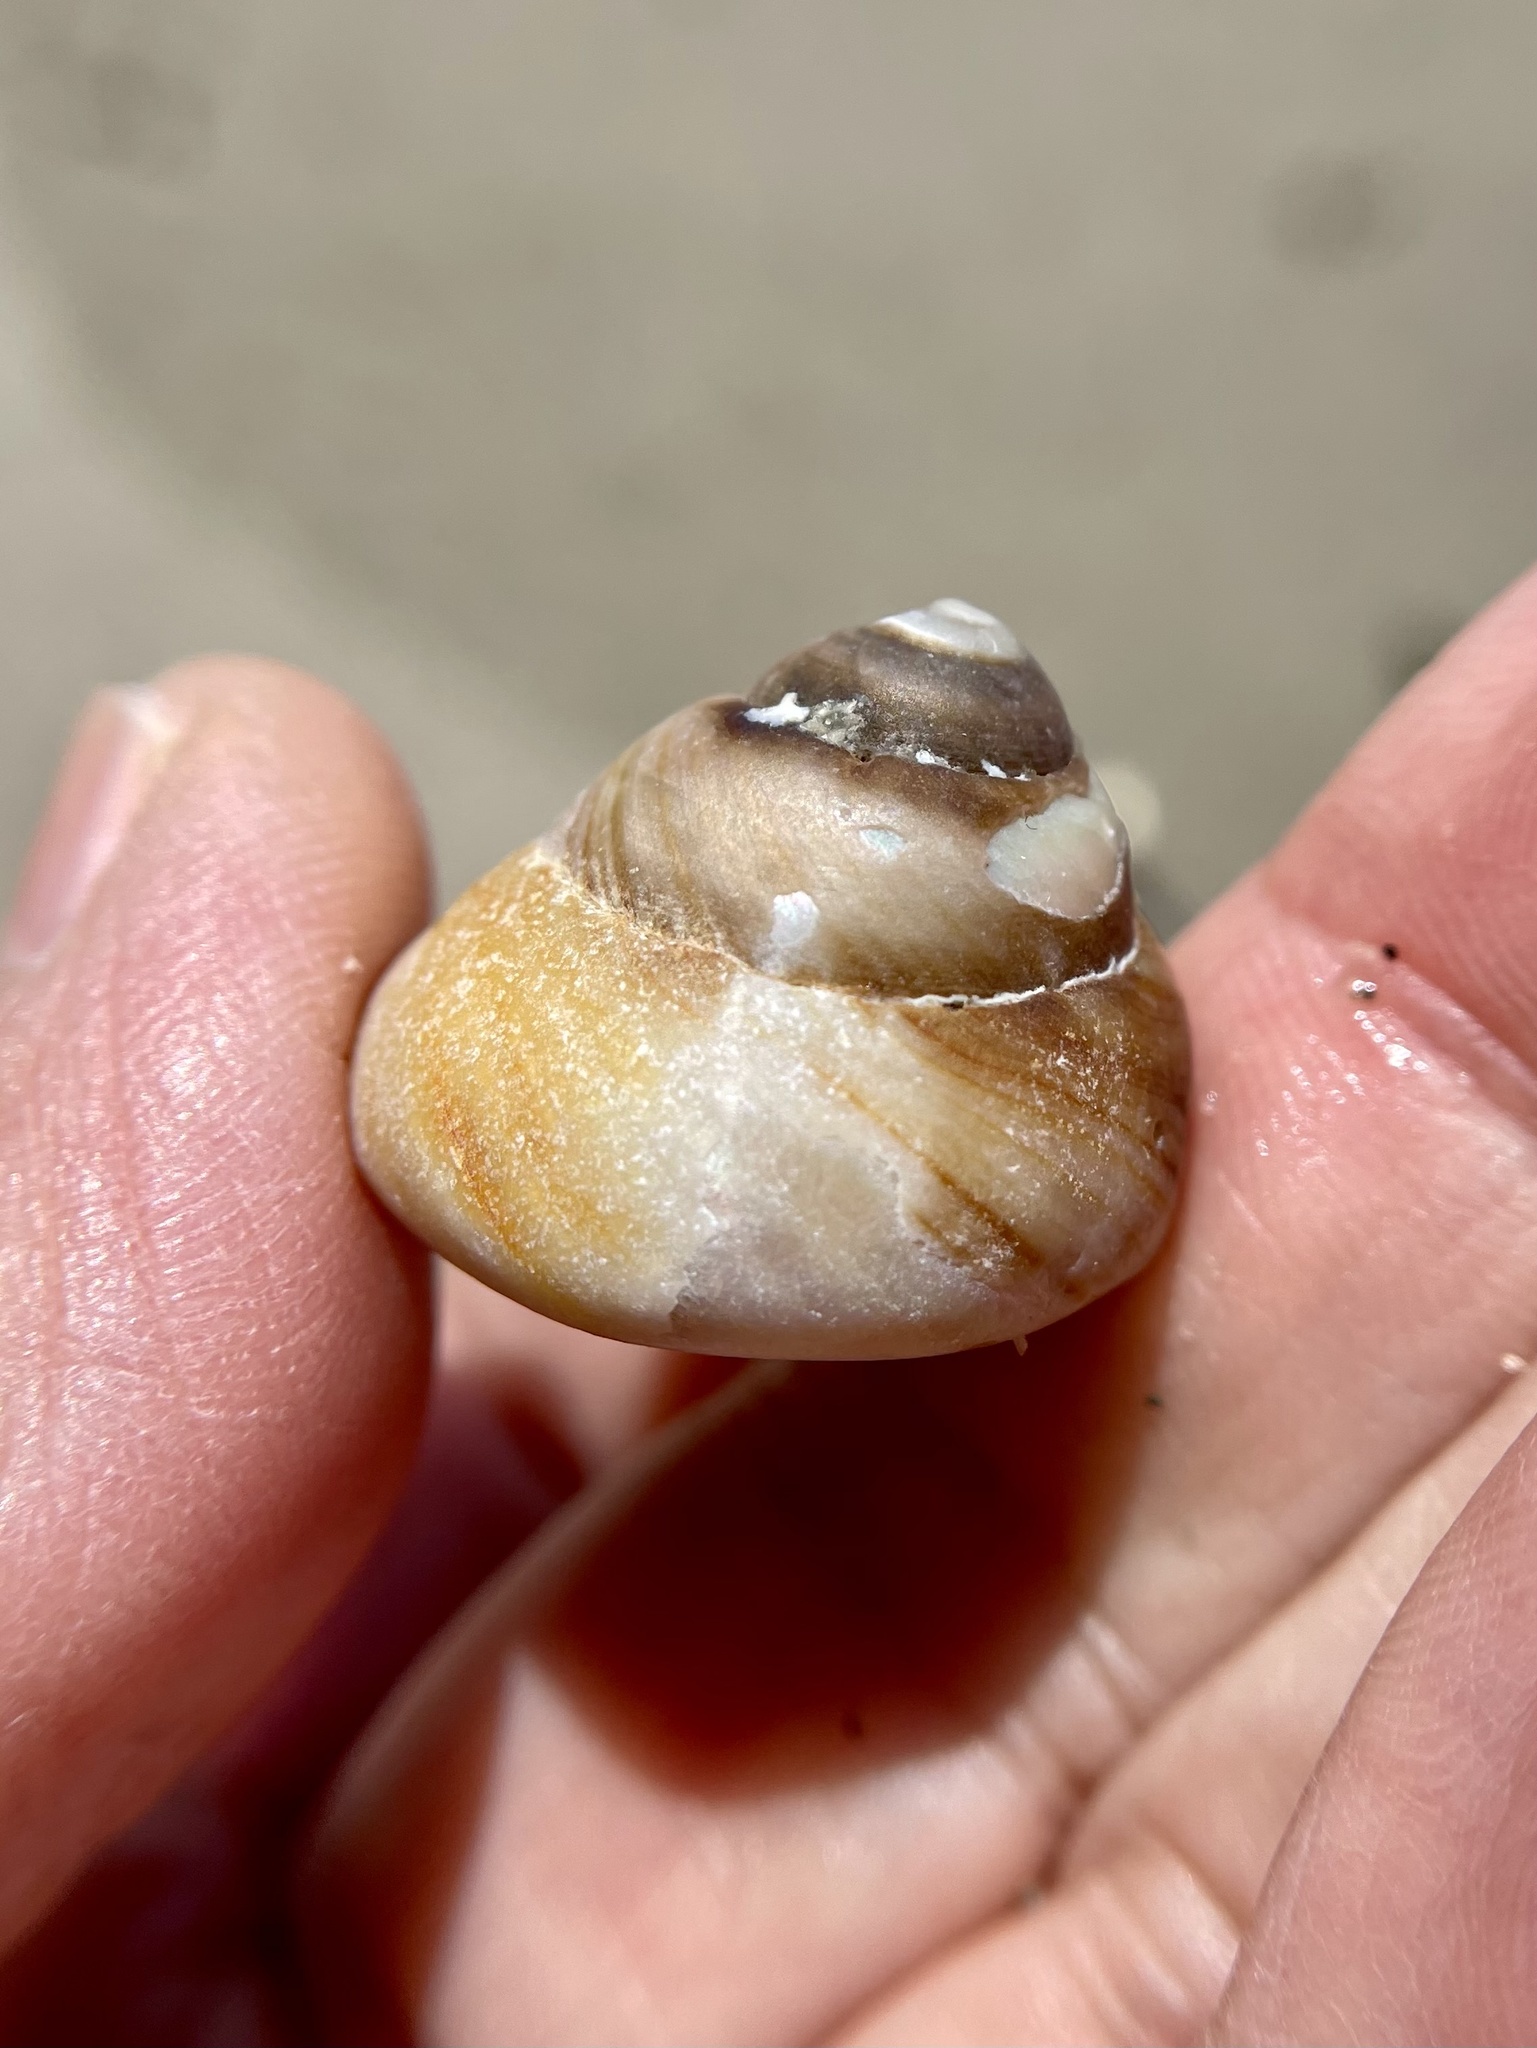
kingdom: Animalia
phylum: Mollusca
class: Gastropoda
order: Trochida
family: Tegulidae
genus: Tegula
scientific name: Tegula brunnea
